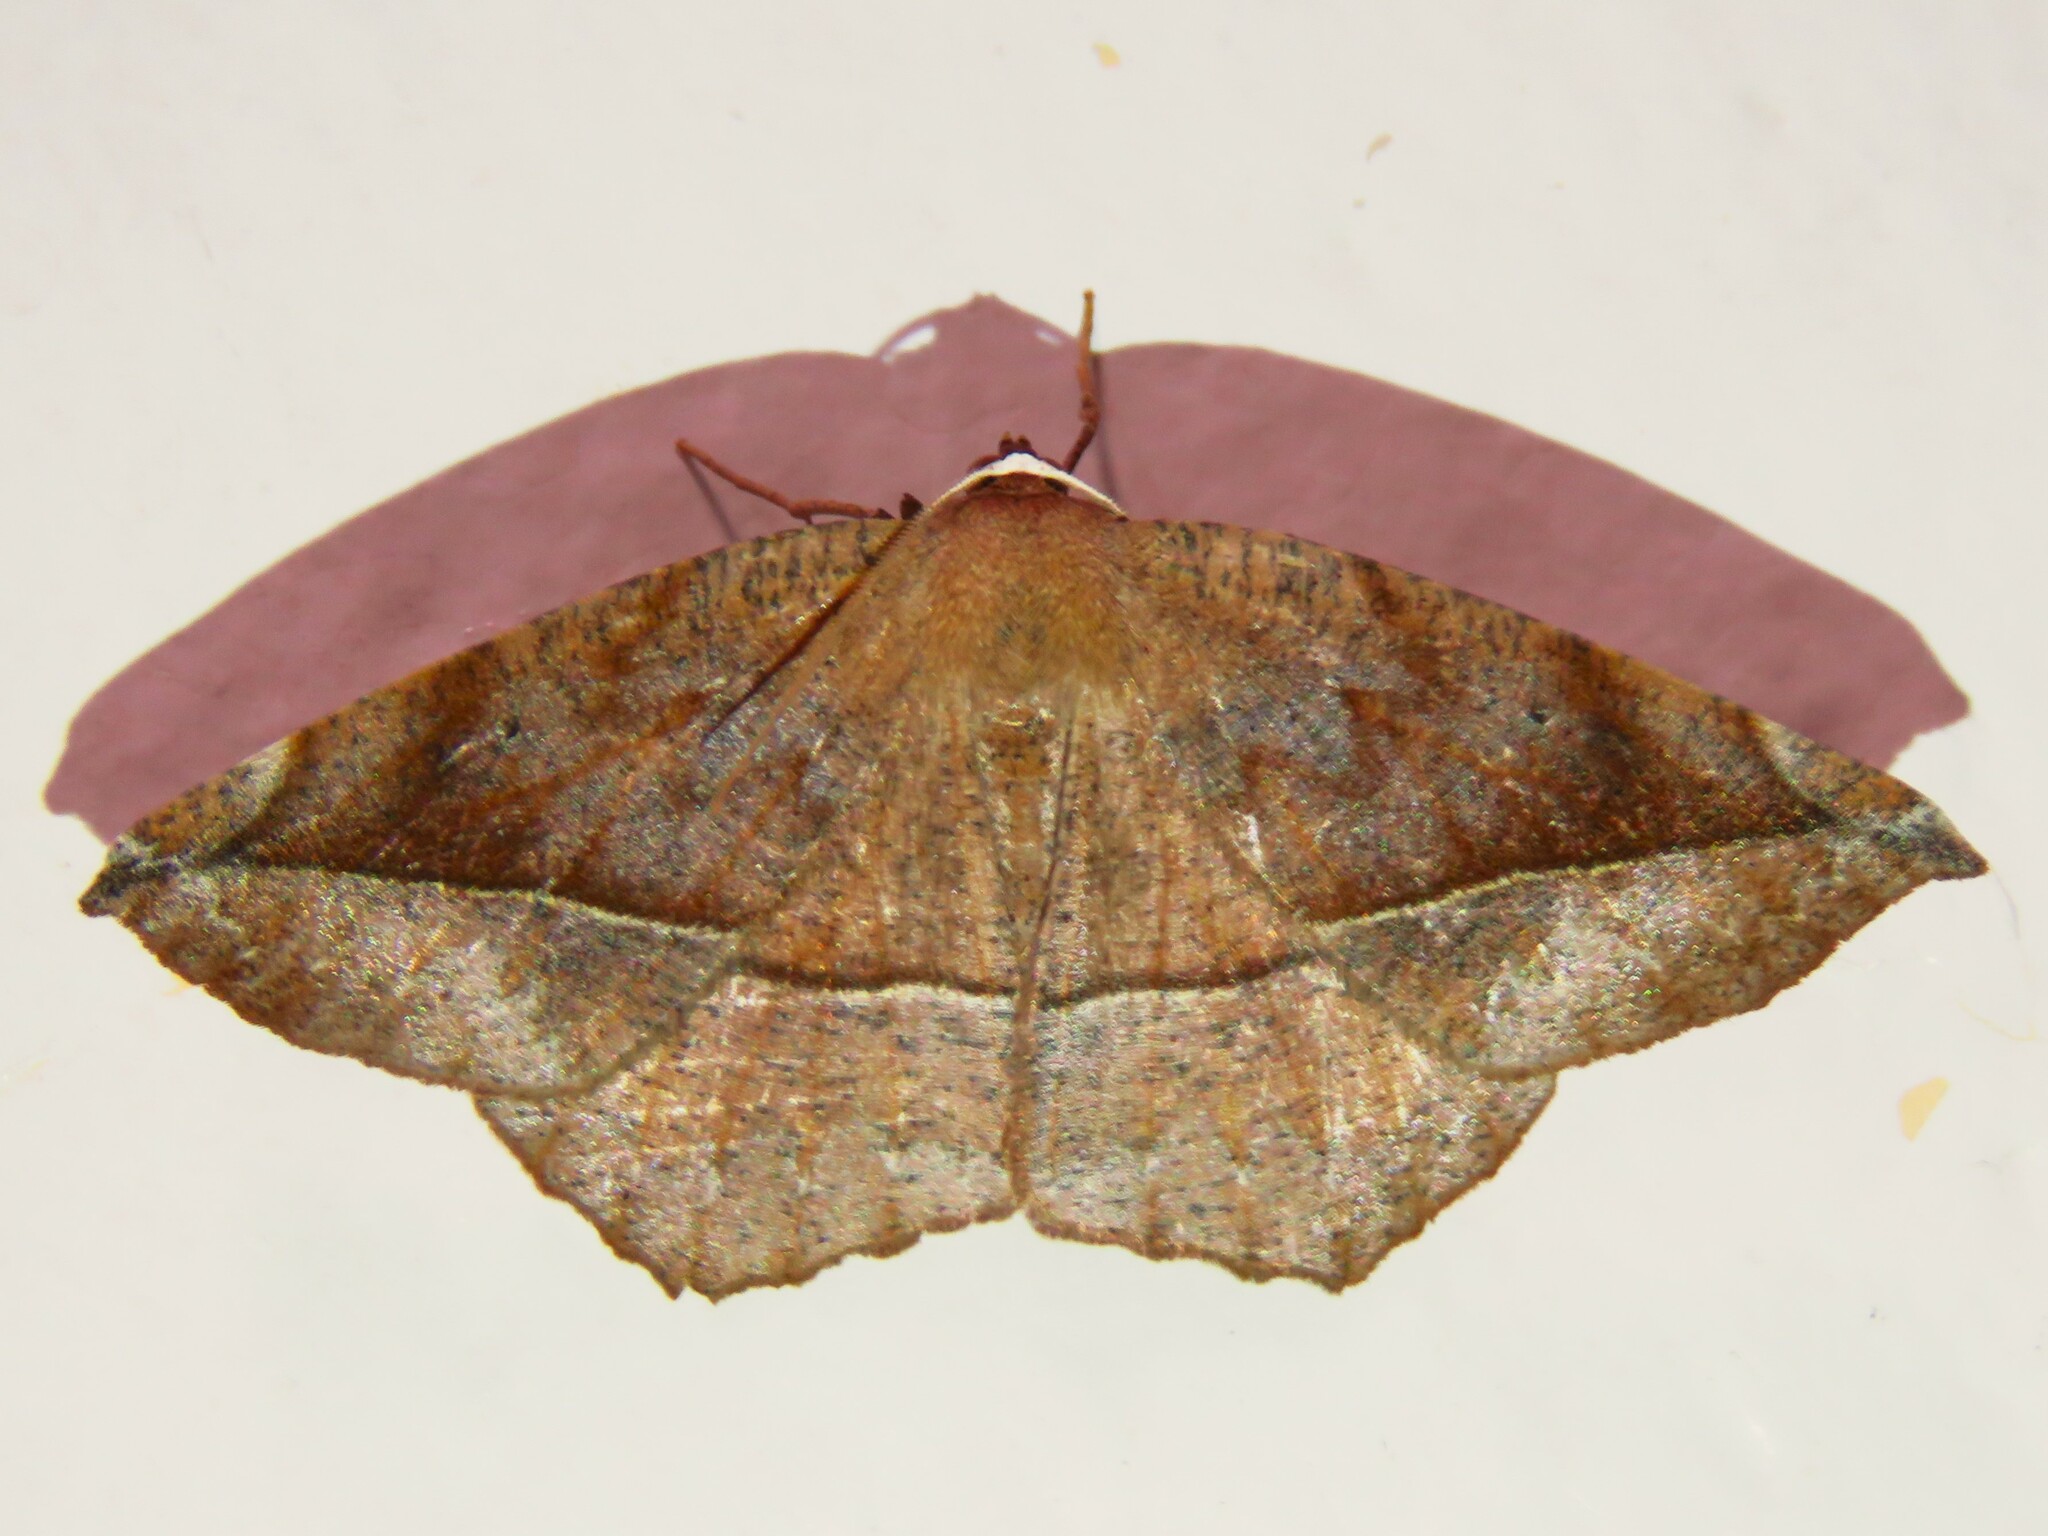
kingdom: Animalia
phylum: Arthropoda
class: Insecta
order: Lepidoptera
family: Geometridae
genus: Eutrapela
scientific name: Eutrapela clemataria
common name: Curved-toothed geometer
